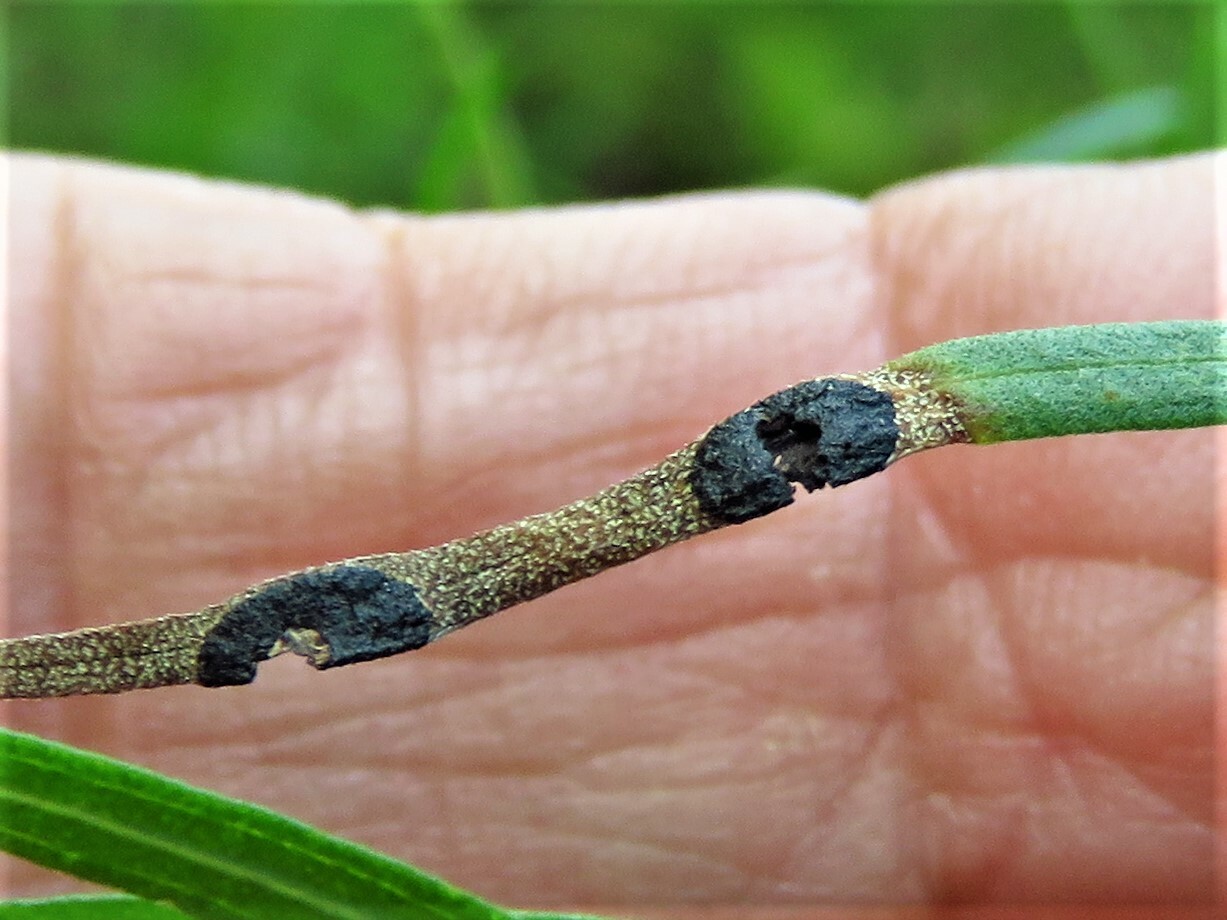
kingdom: Animalia
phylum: Arthropoda
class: Insecta
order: Diptera
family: Cecidomyiidae
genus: Asteromyia
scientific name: Asteromyia euthamiae
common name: Euthamia leaf gall midge
